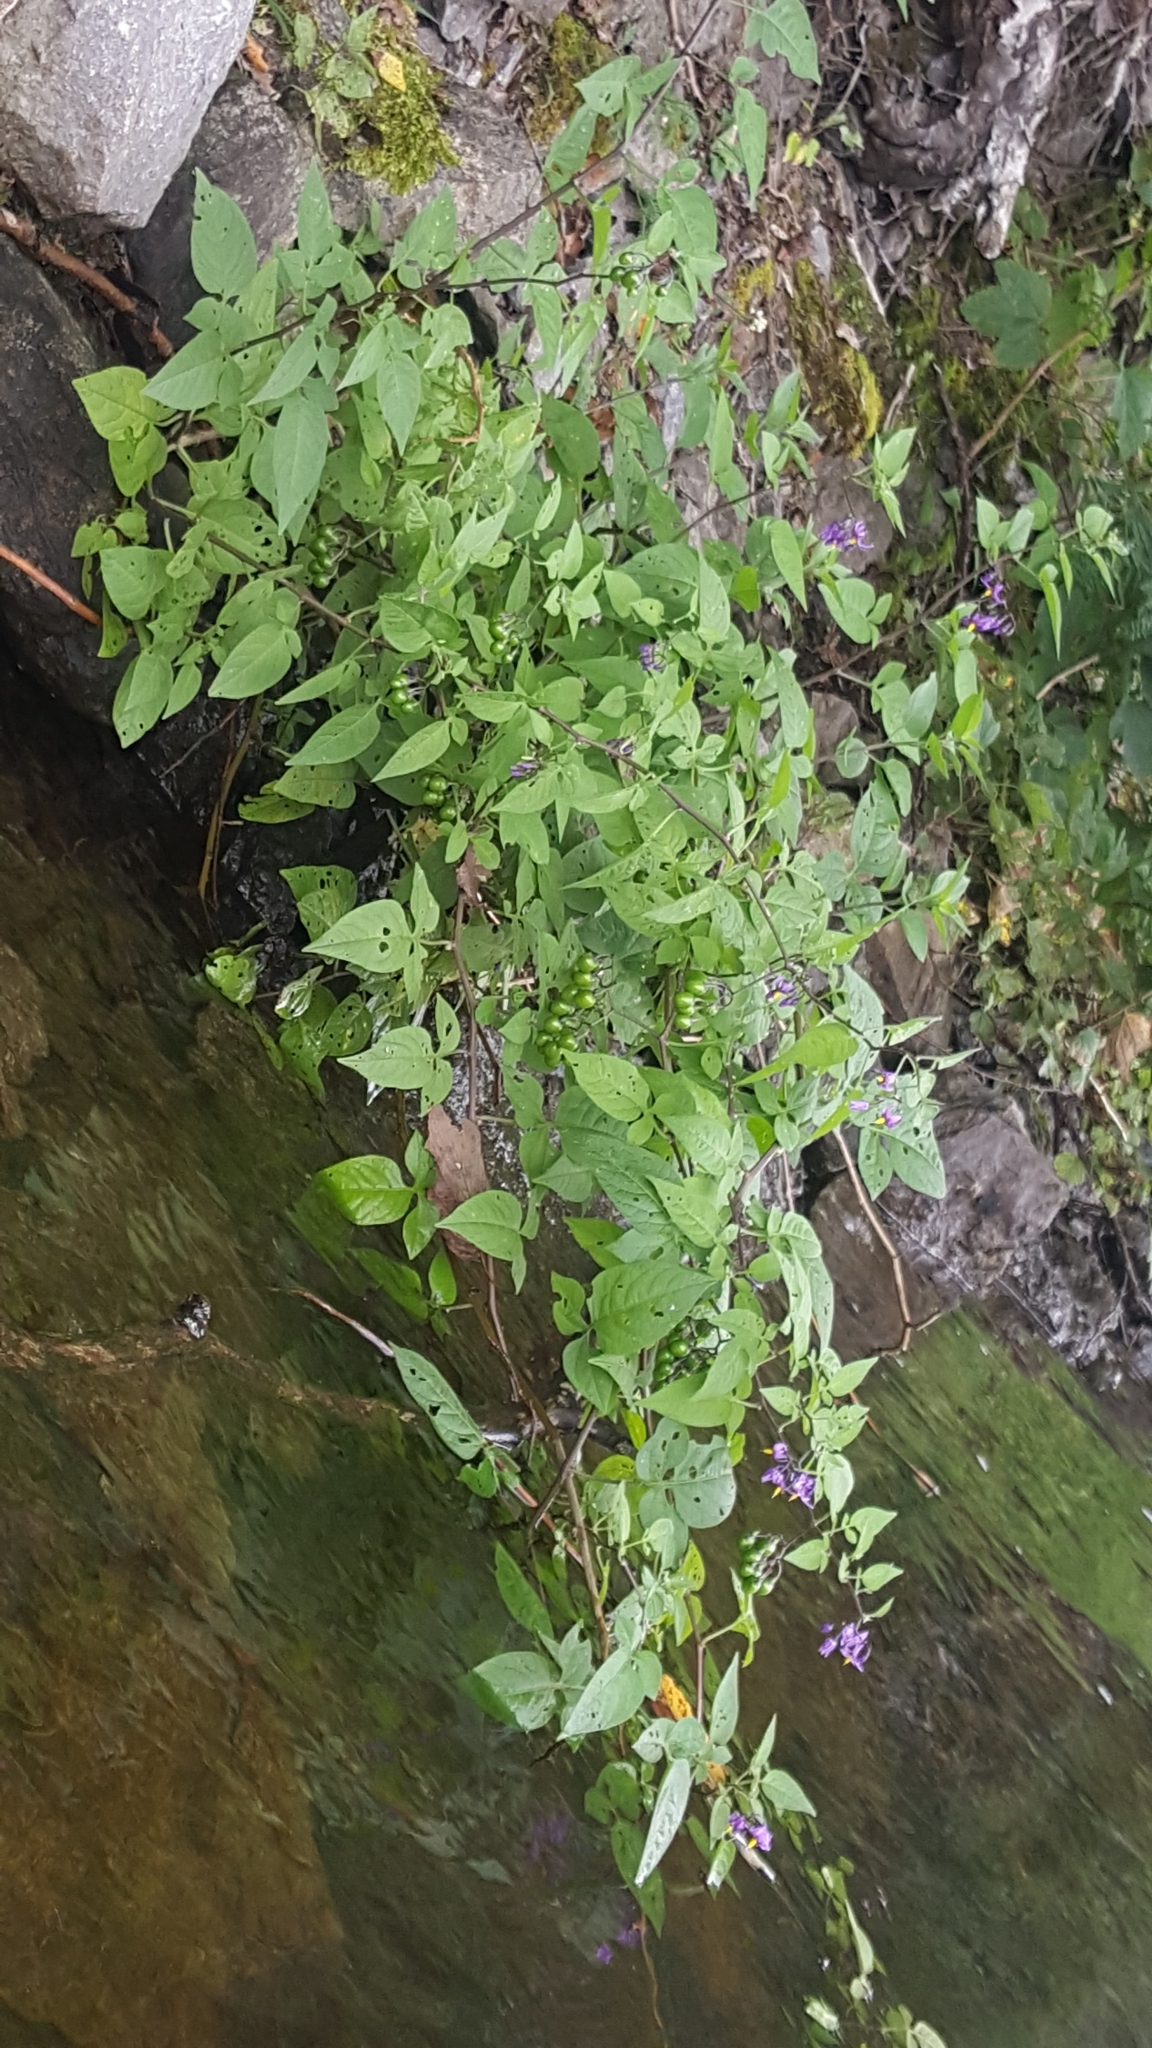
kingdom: Plantae
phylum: Tracheophyta
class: Magnoliopsida
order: Solanales
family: Solanaceae
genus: Solanum
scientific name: Solanum dulcamara
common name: Climbing nightshade
